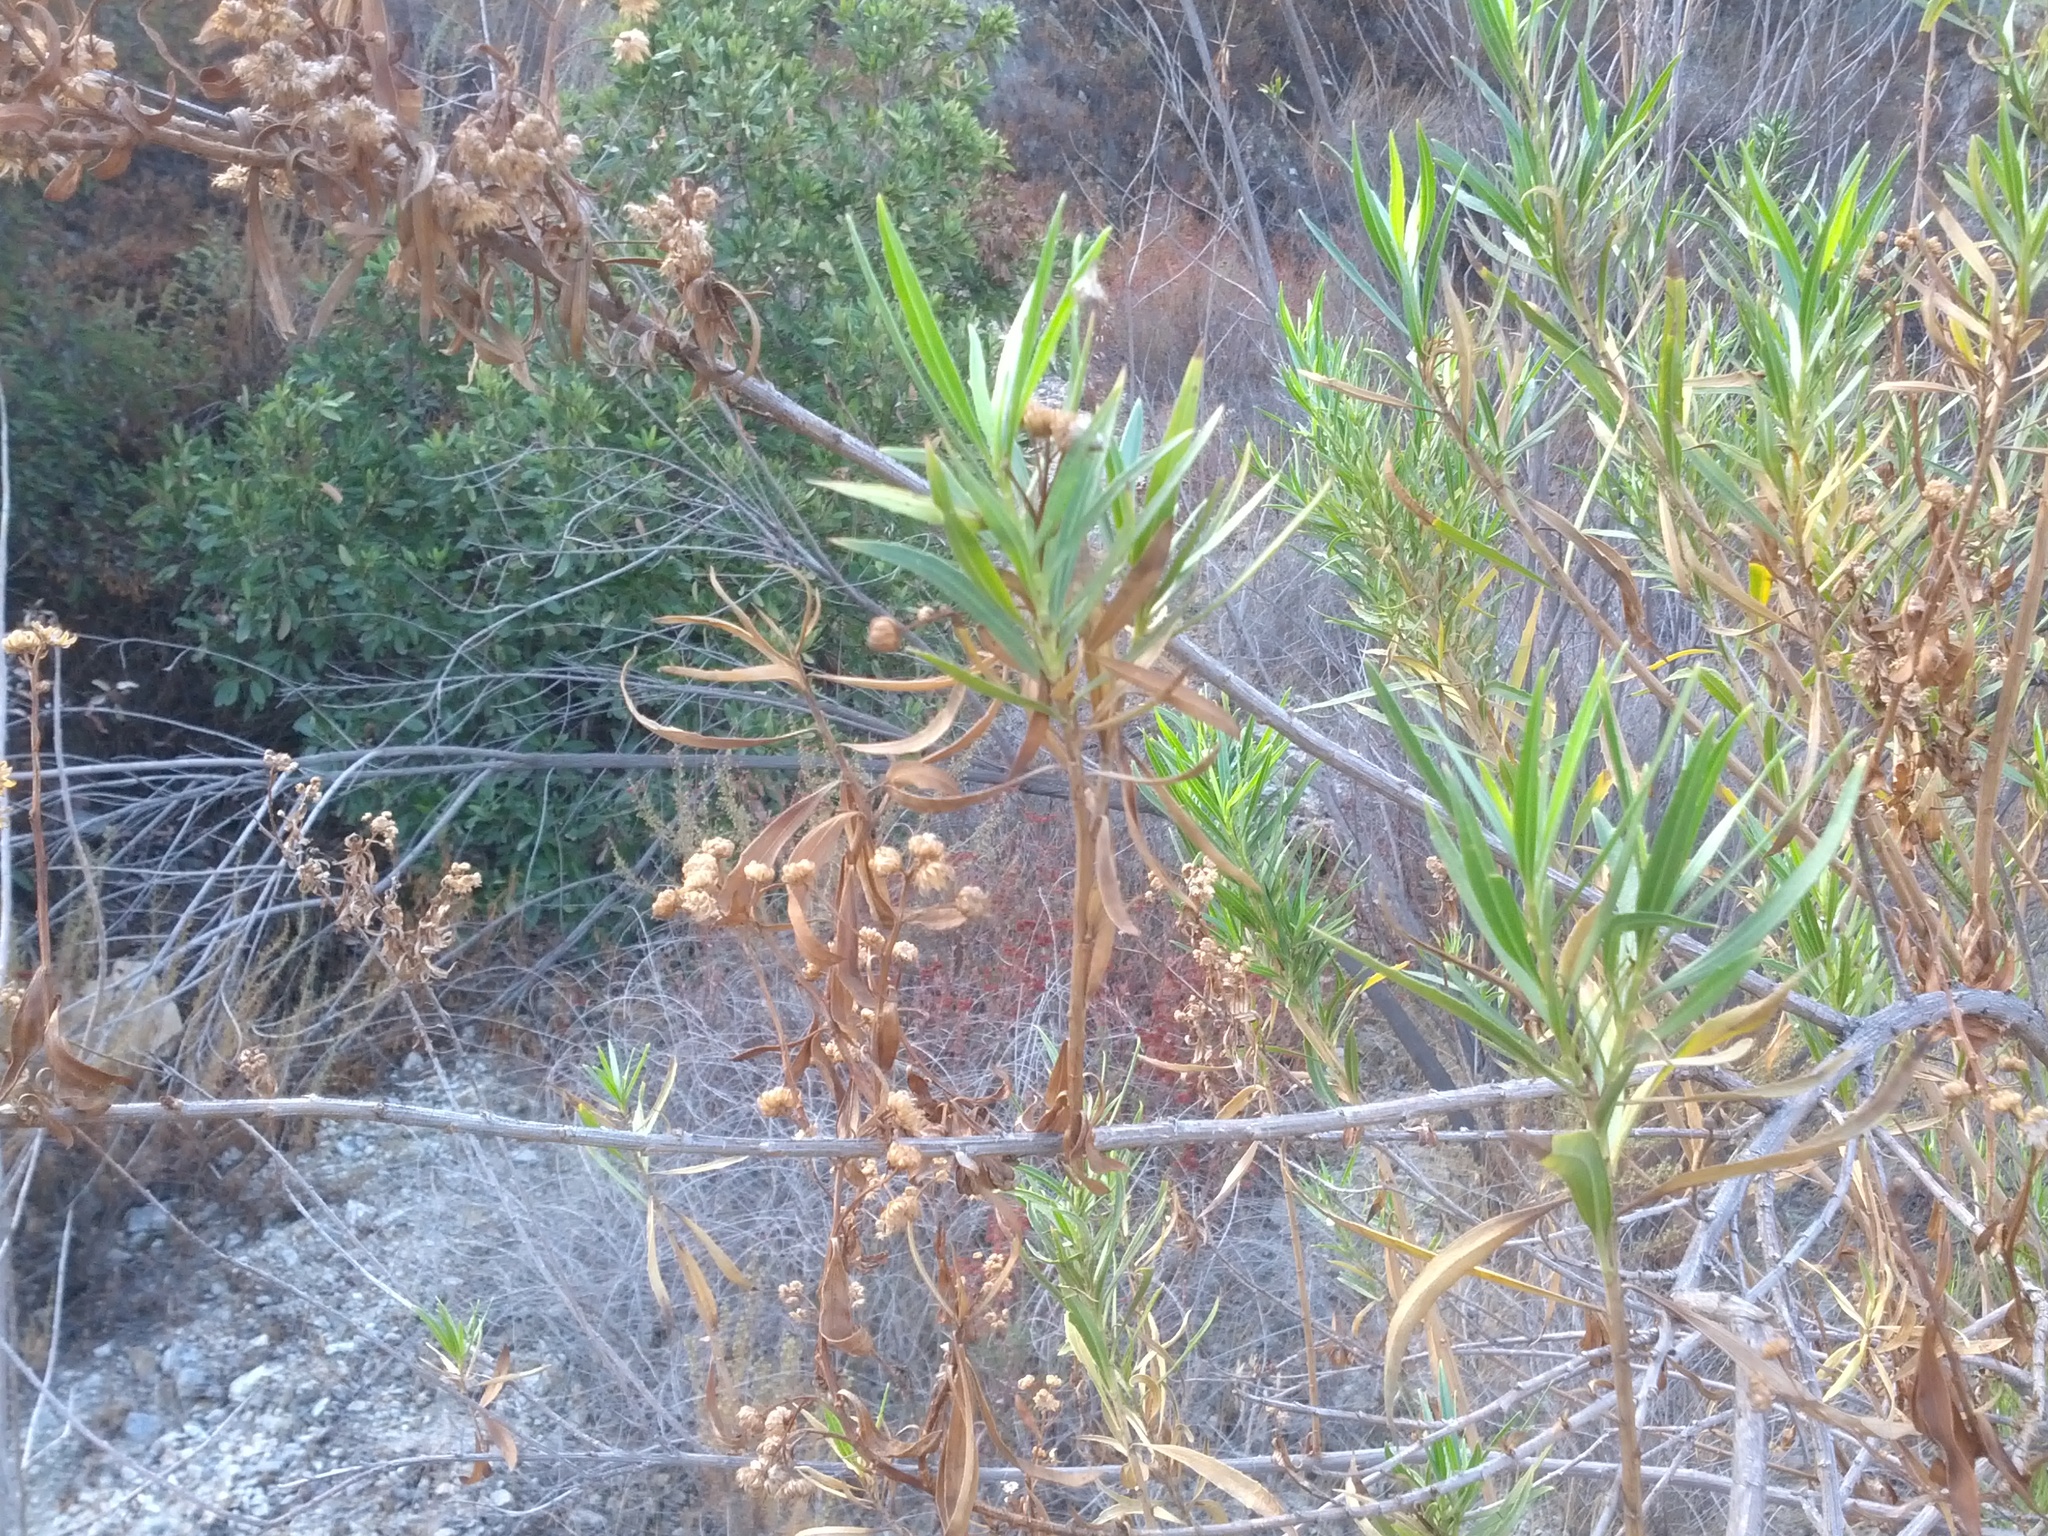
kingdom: Plantae
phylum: Tracheophyta
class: Magnoliopsida
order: Asterales
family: Asteraceae
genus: Baccharis
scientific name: Baccharis salicifolia
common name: Sticky baccharis
